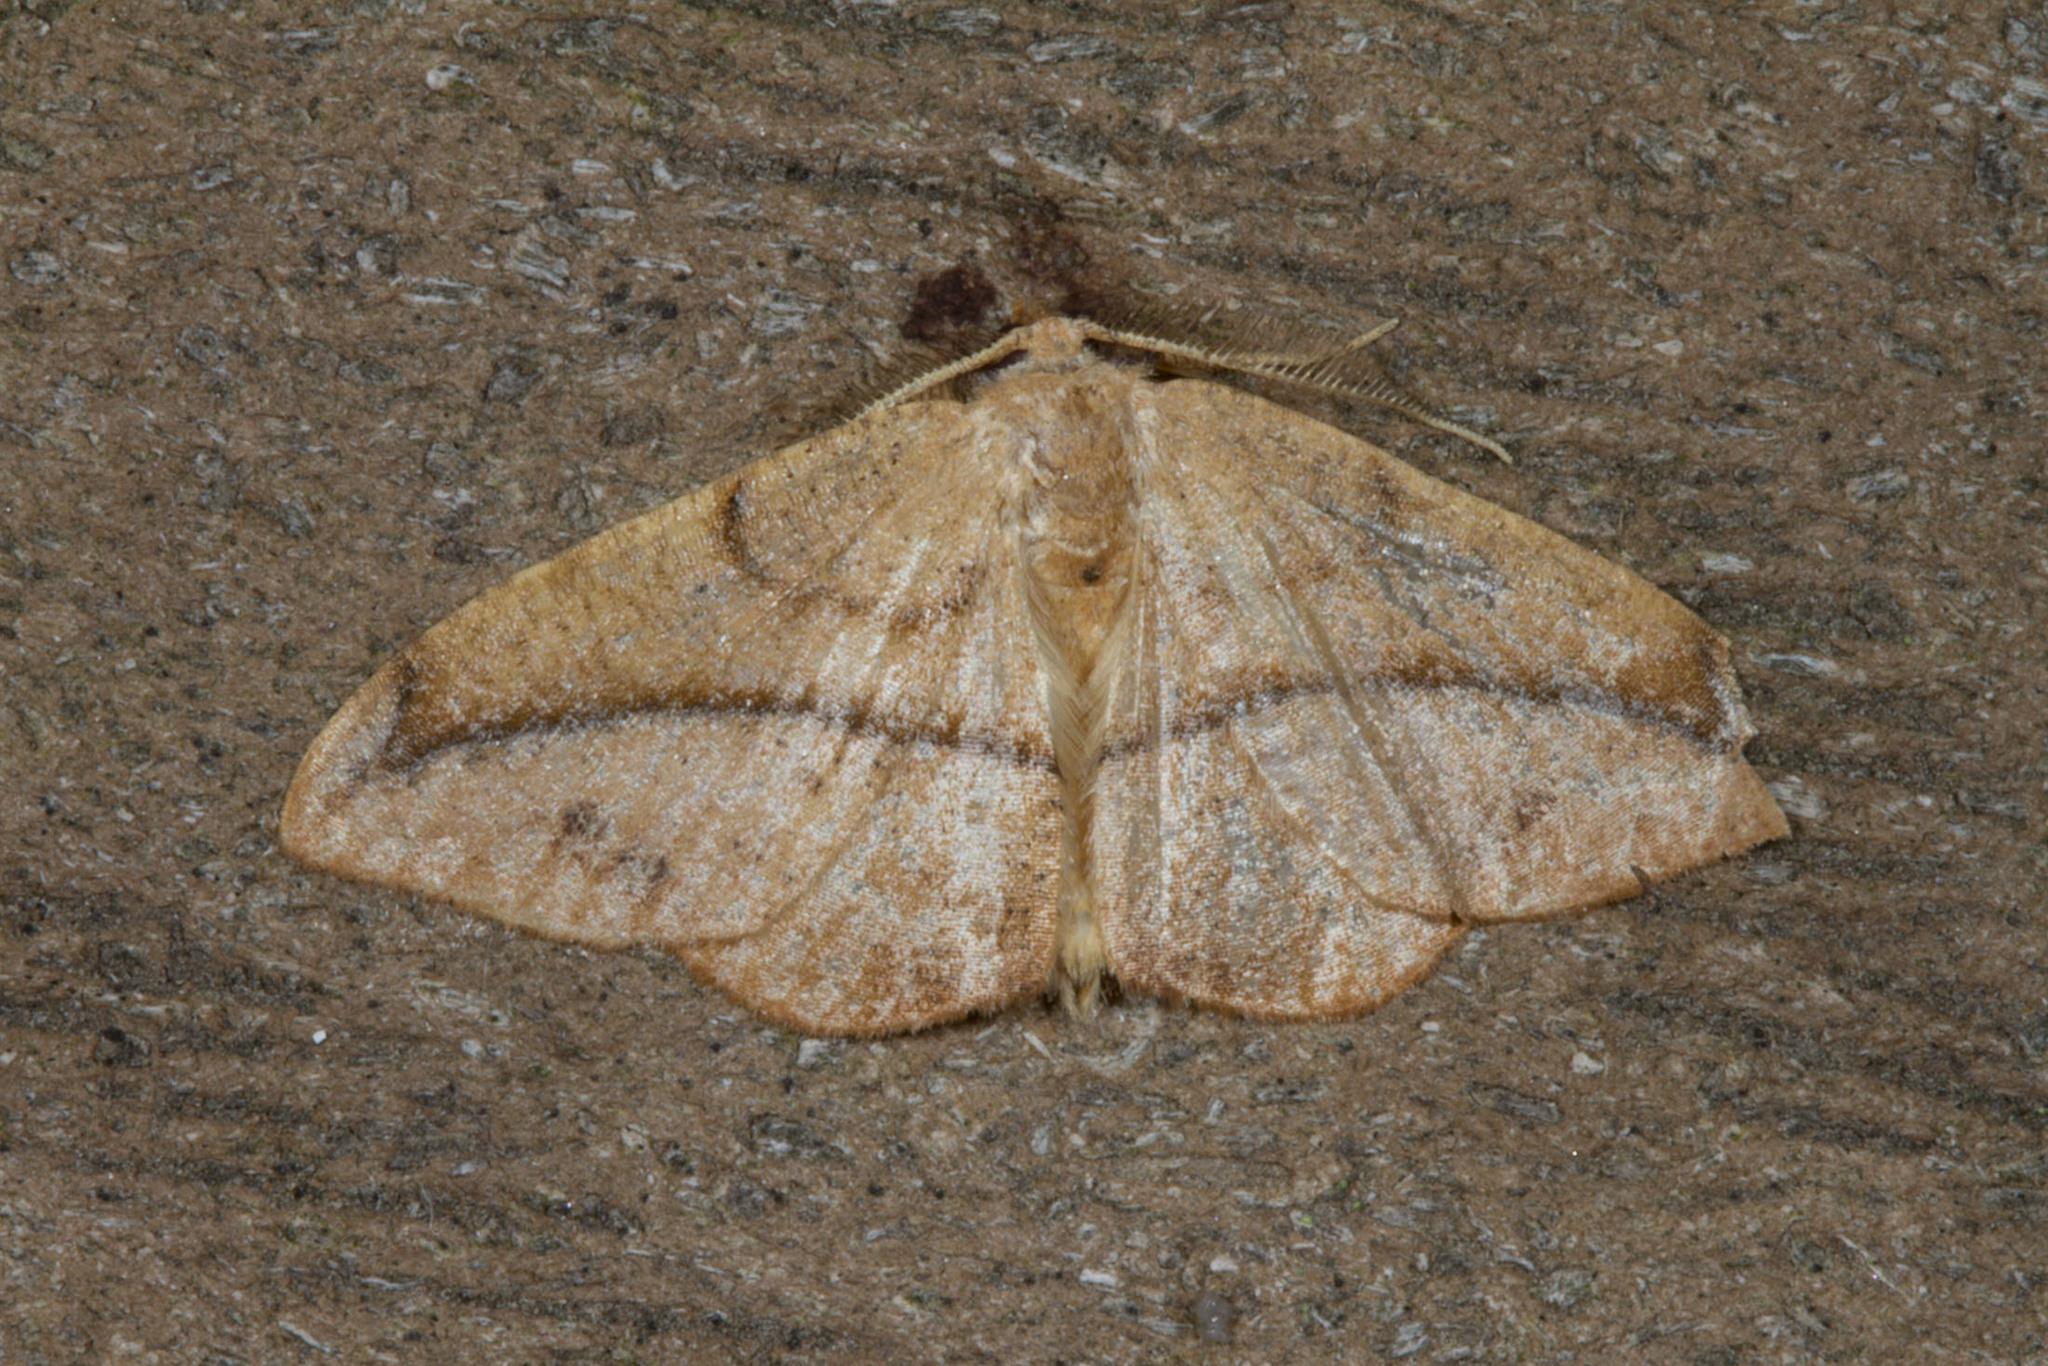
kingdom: Animalia
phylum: Arthropoda
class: Insecta
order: Lepidoptera
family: Geometridae
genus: Patalene
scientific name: Patalene olyzonaria
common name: Juniper geometer moth
